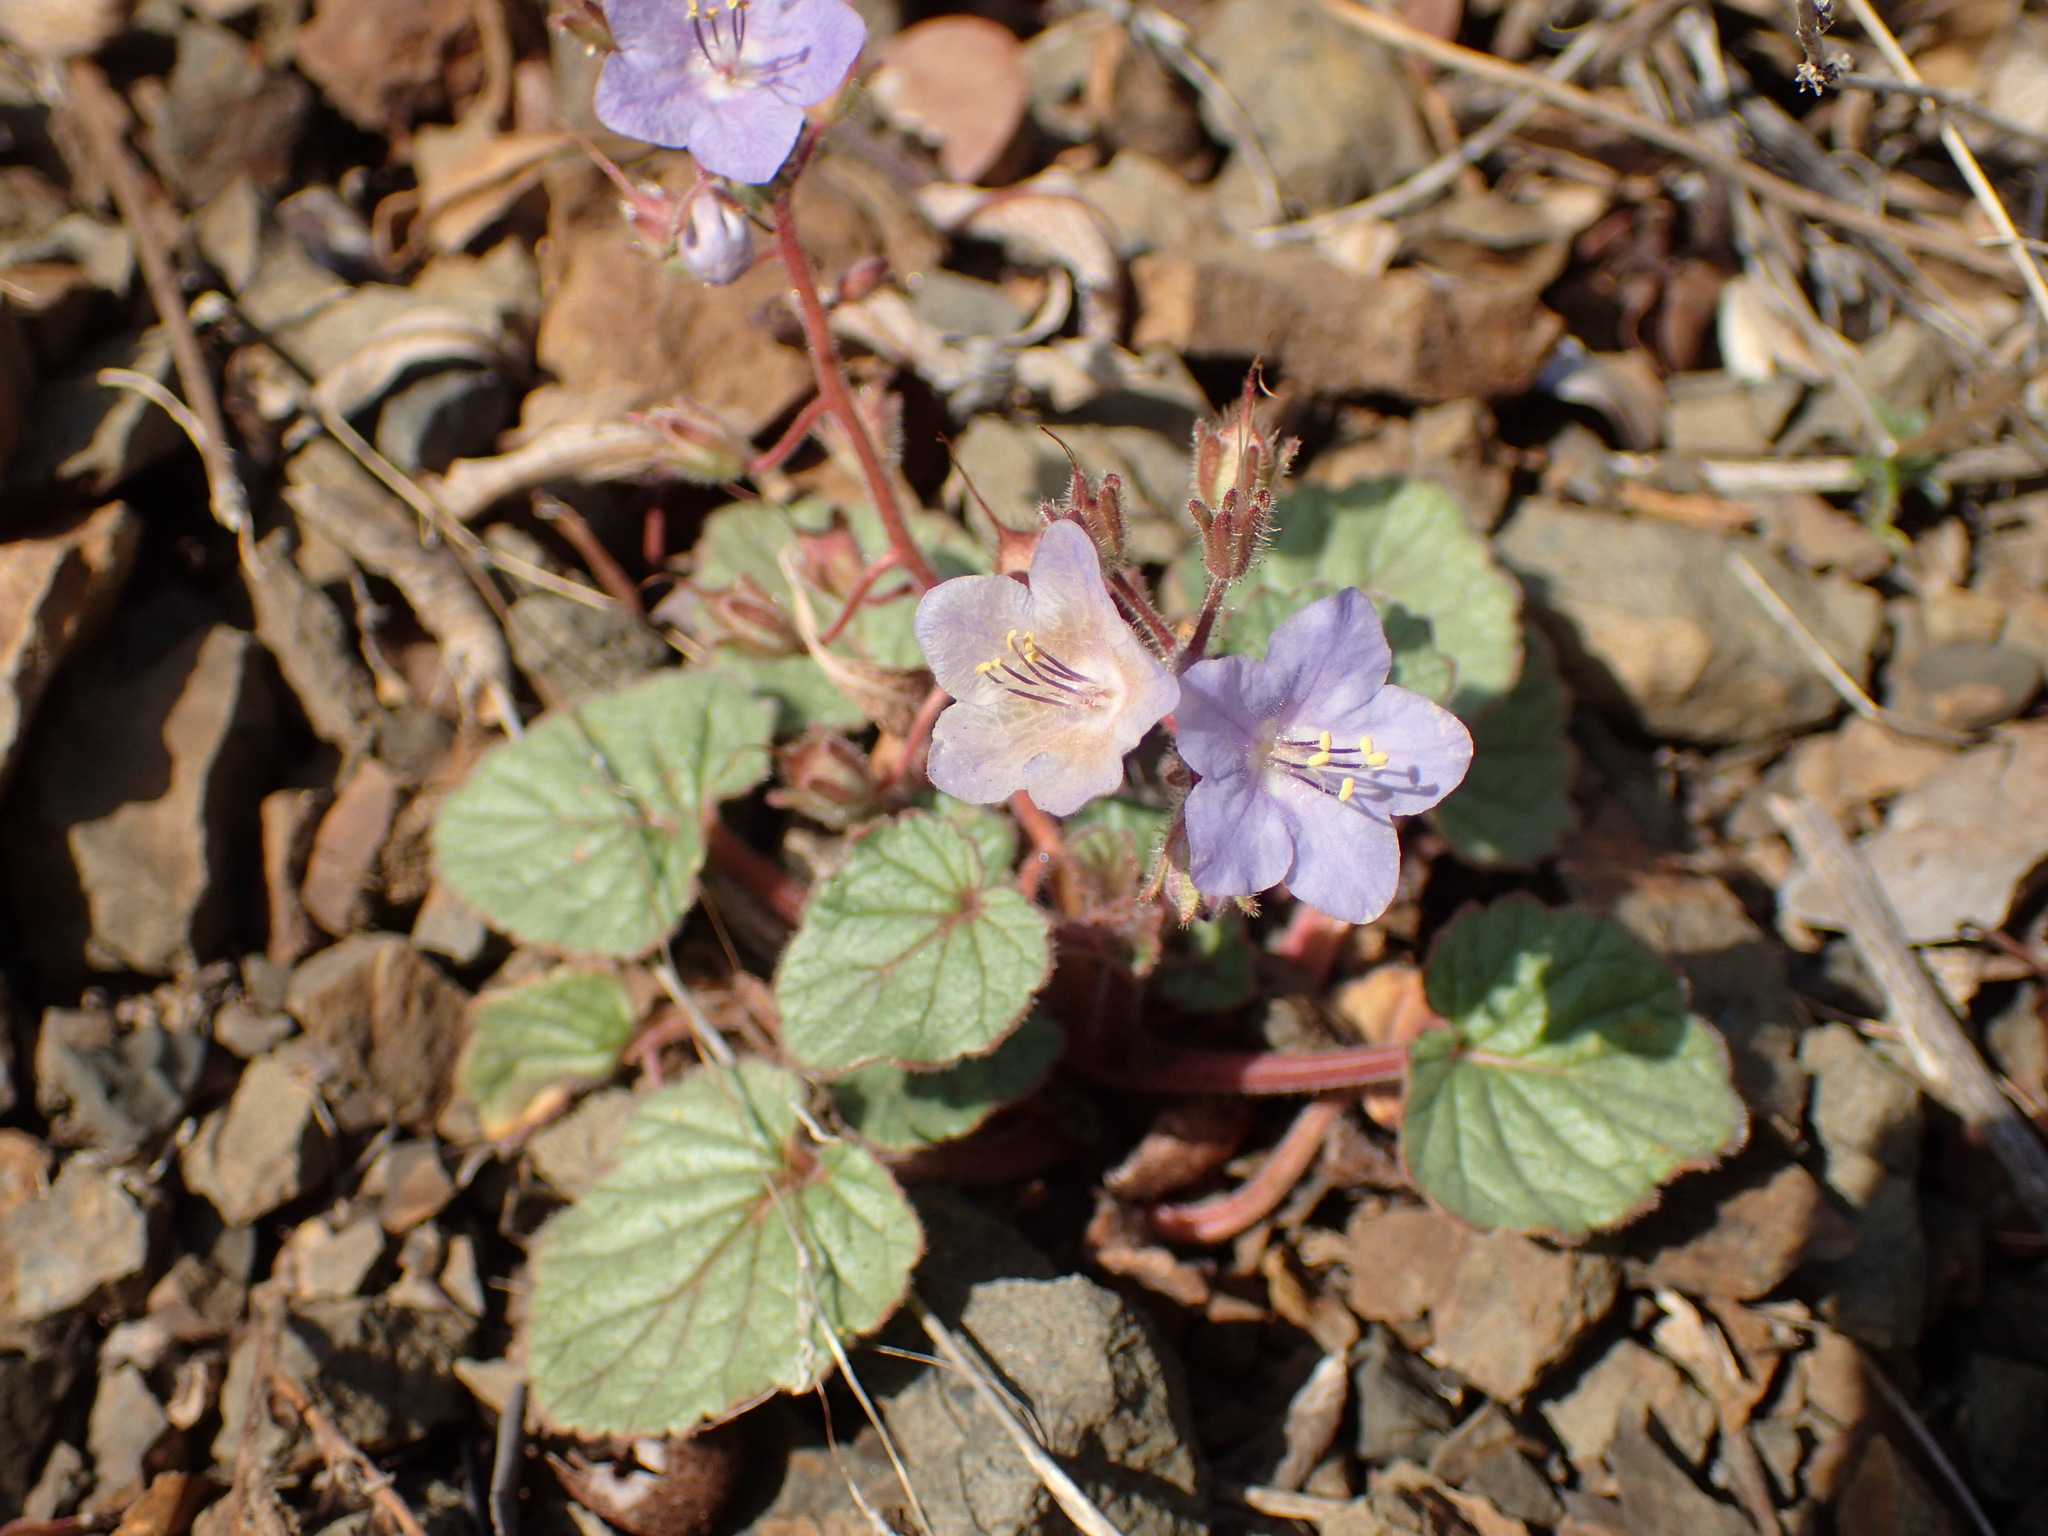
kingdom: Plantae
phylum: Tracheophyta
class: Magnoliopsida
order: Boraginales
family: Hydrophyllaceae
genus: Phacelia
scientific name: Phacelia longipes
